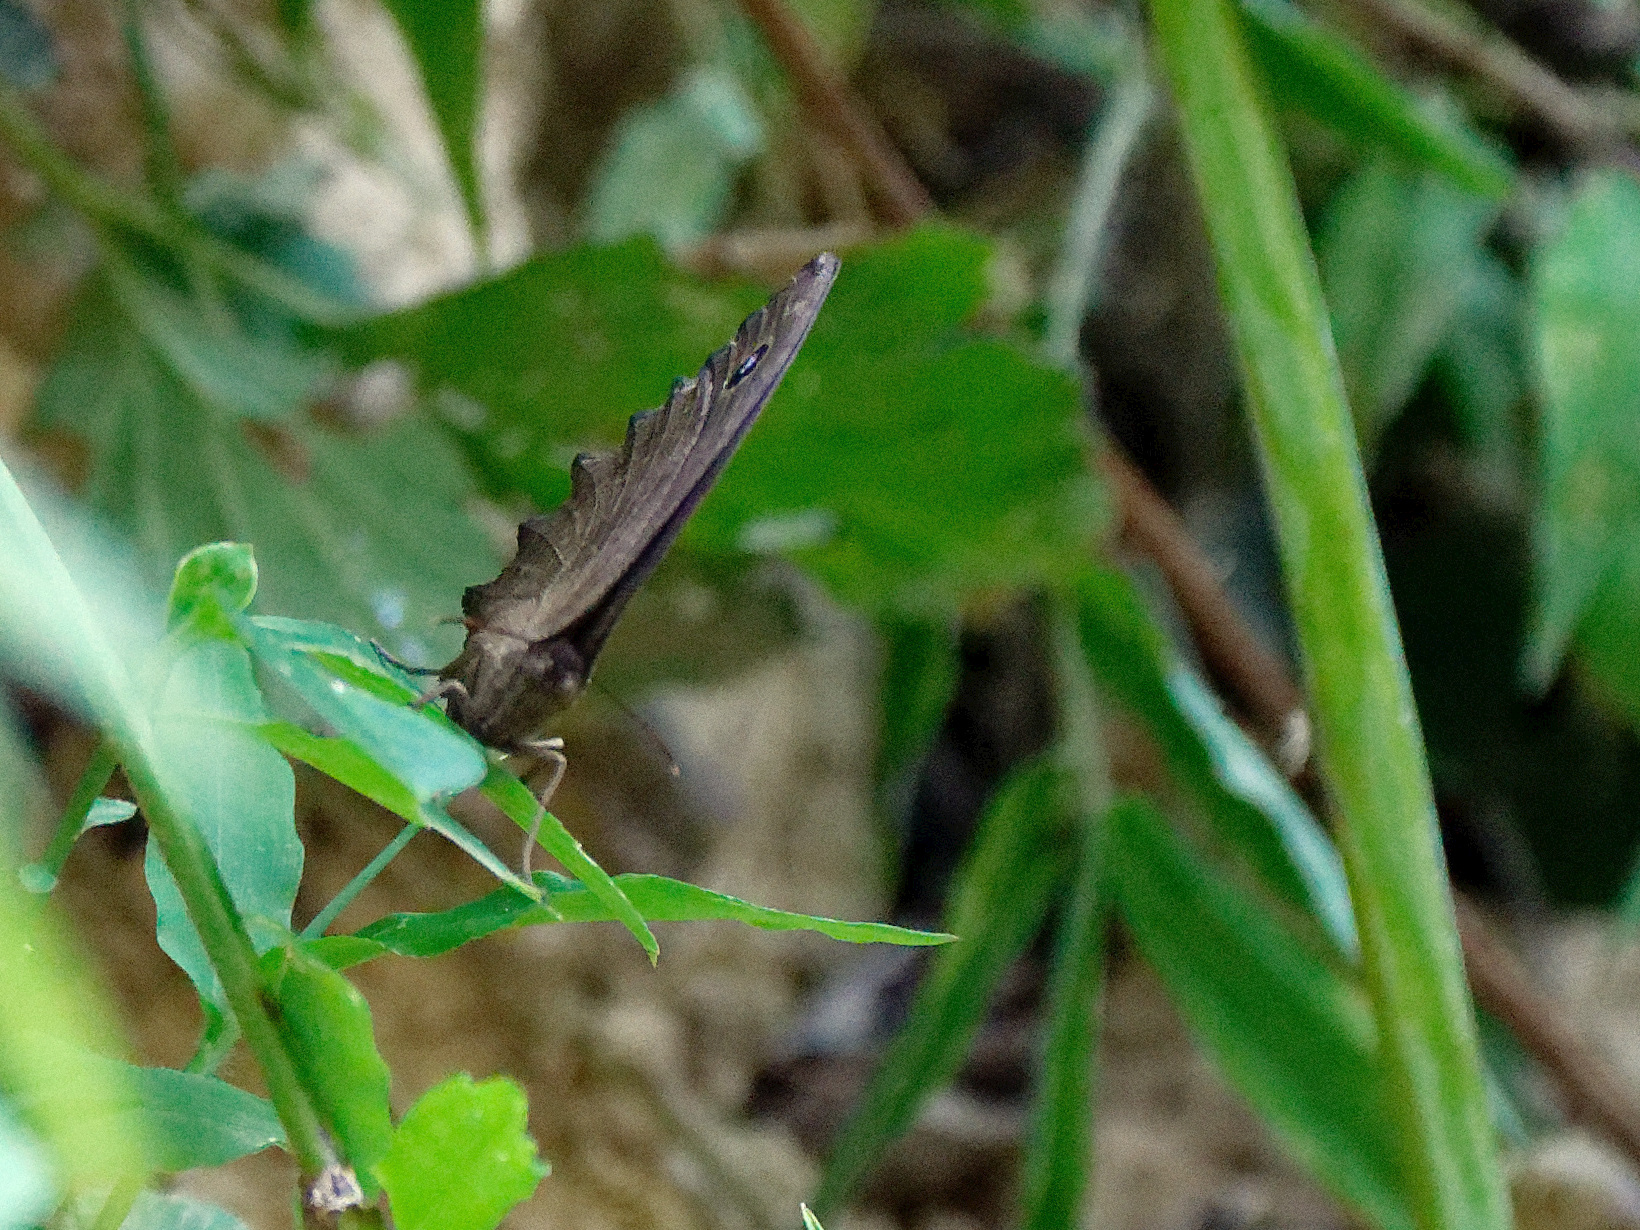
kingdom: Animalia
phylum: Arthropoda
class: Insecta
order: Lepidoptera
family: Nymphalidae
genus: Minois
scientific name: Minois dryas
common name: Dryad
